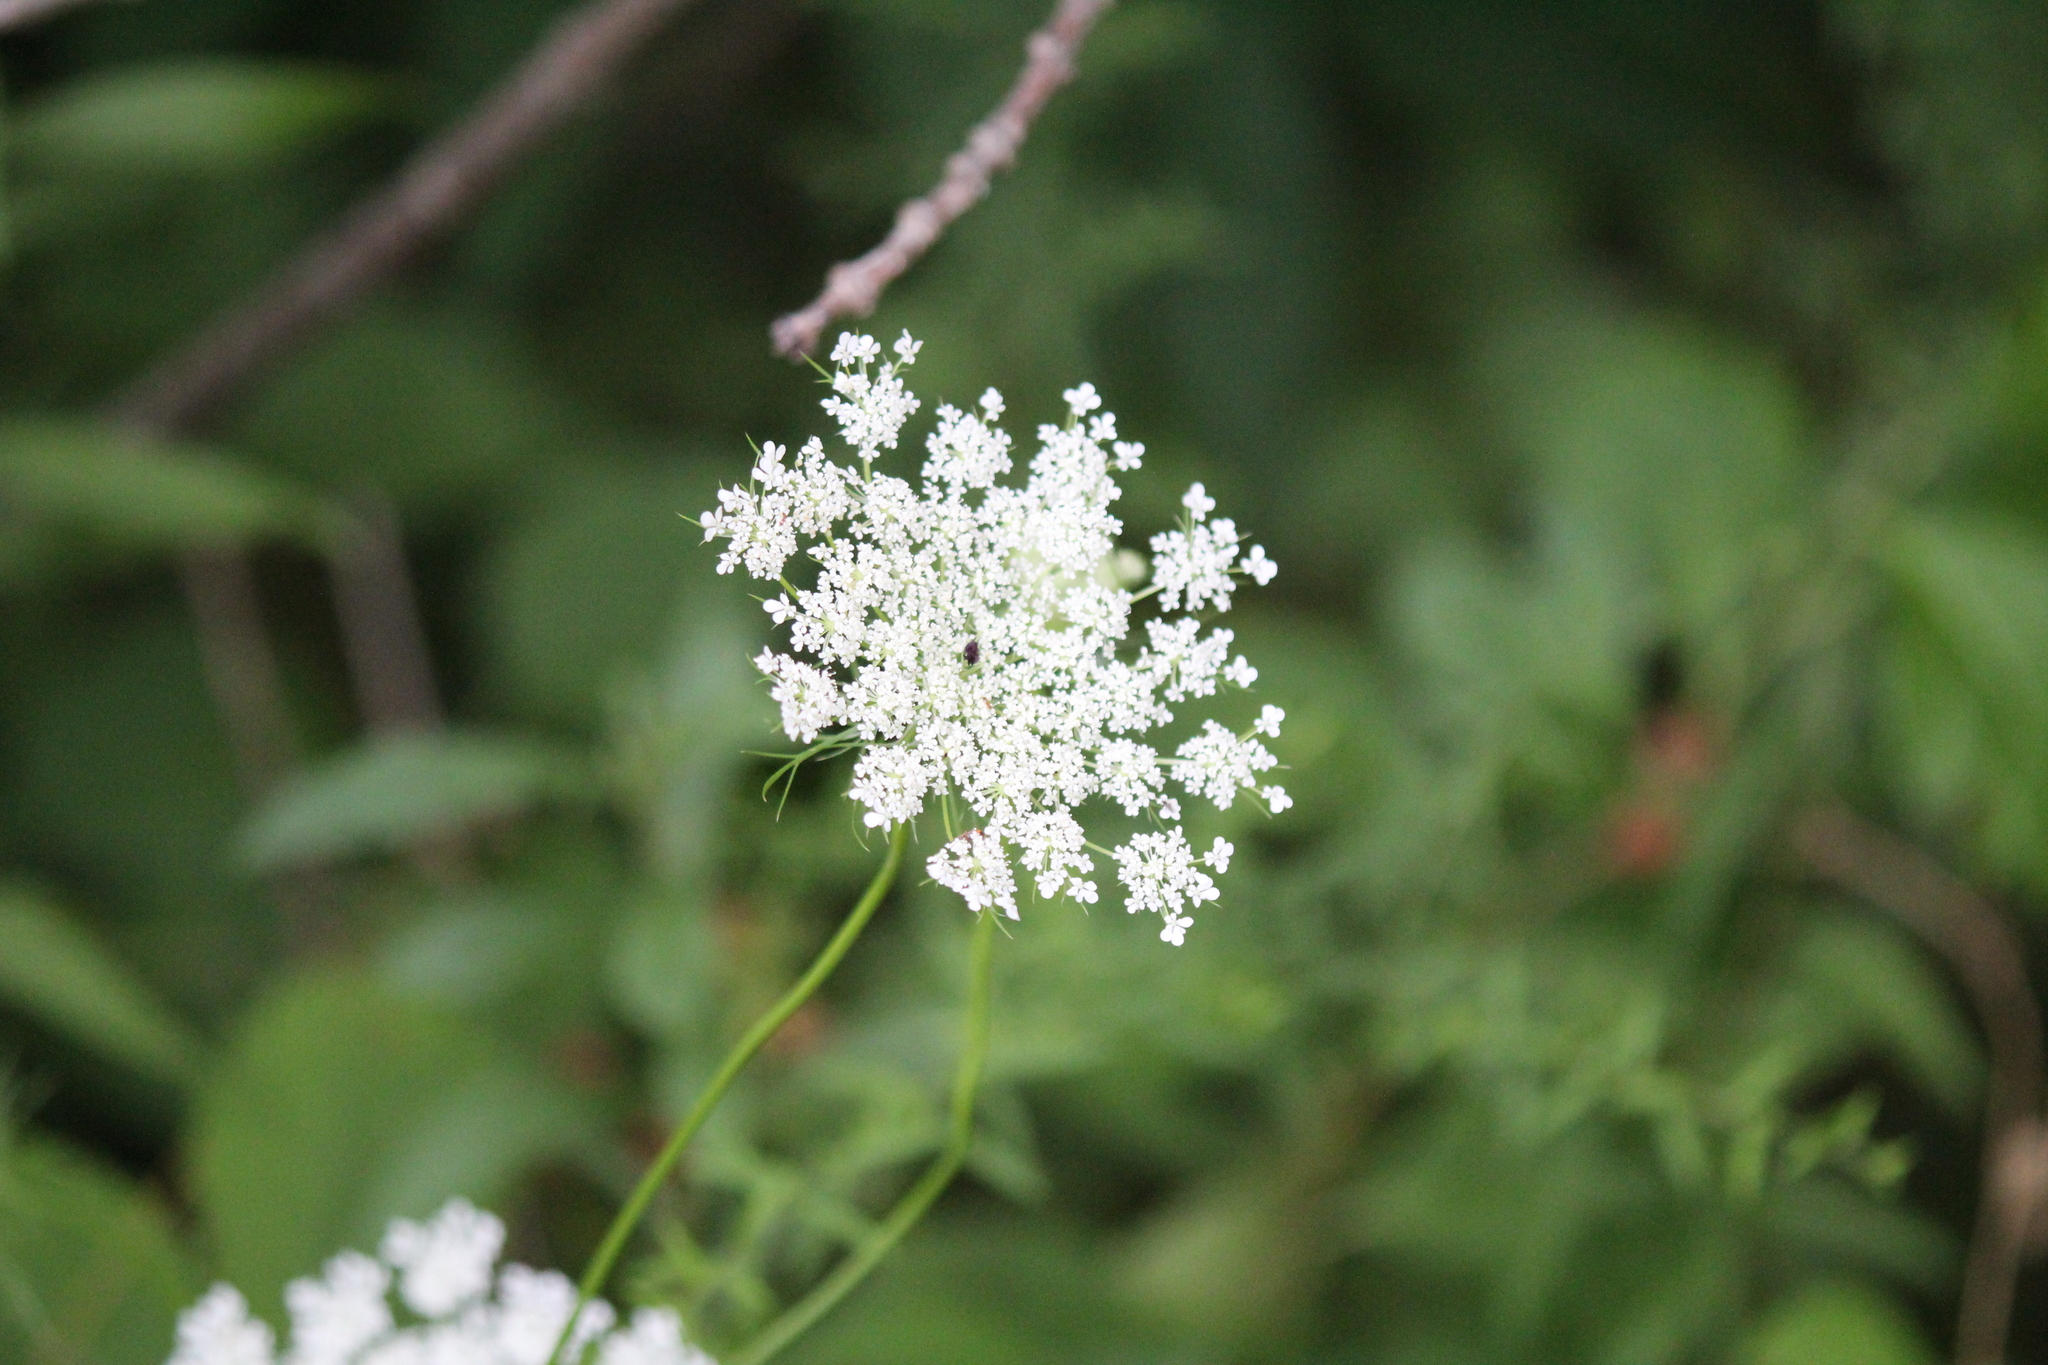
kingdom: Plantae
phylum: Tracheophyta
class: Magnoliopsida
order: Apiales
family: Apiaceae
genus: Daucus
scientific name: Daucus carota
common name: Wild carrot
